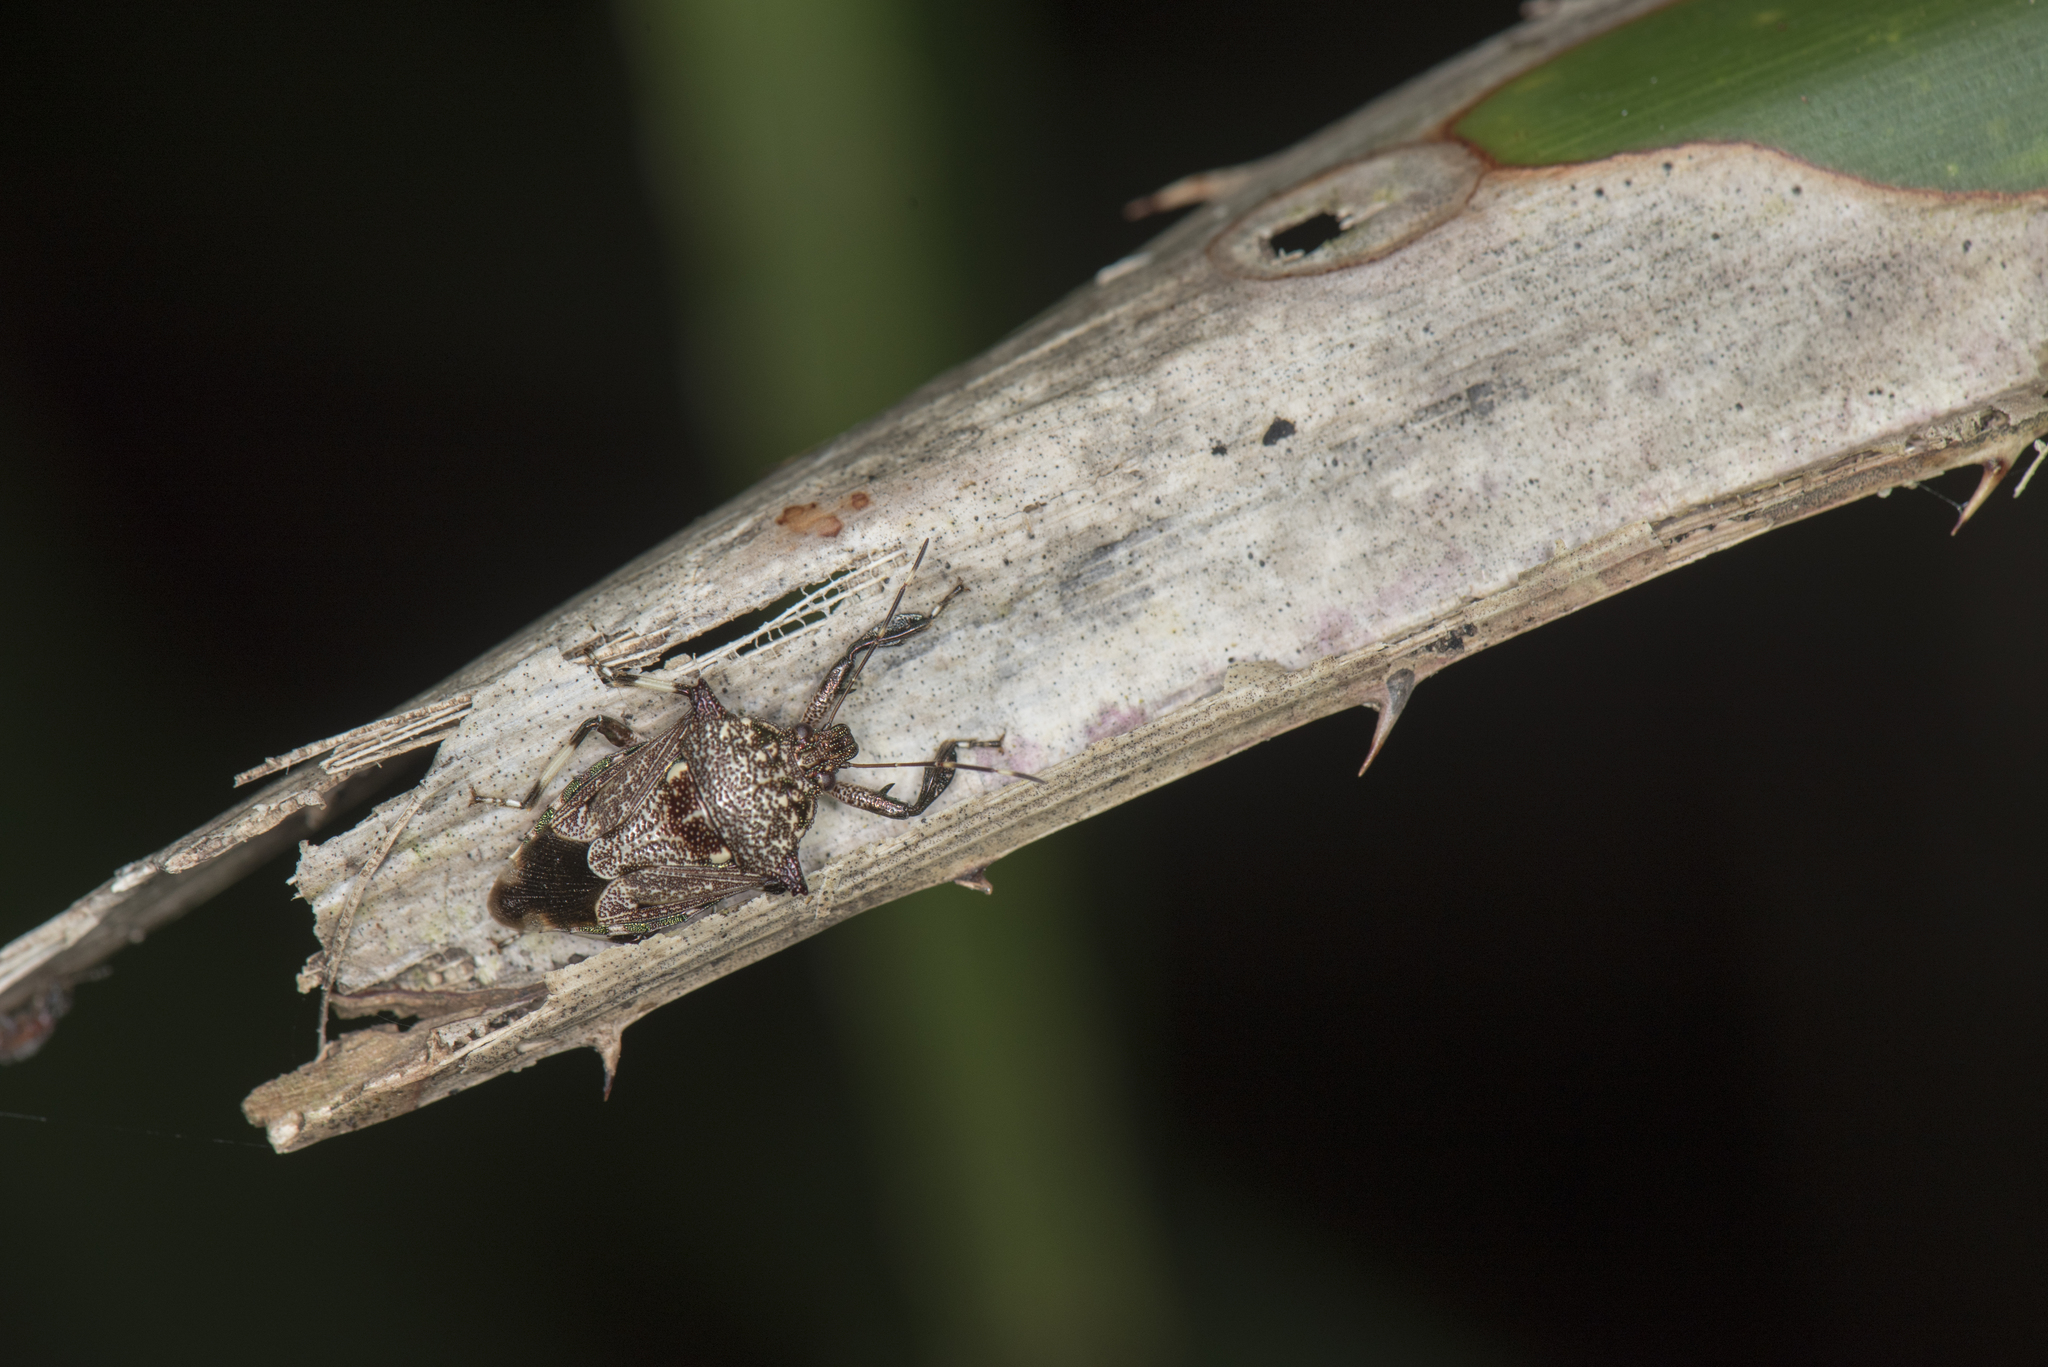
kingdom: Animalia
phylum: Arthropoda
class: Insecta
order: Hemiptera
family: Pentatomidae
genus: Eocanthecona
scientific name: Eocanthecona concinna
